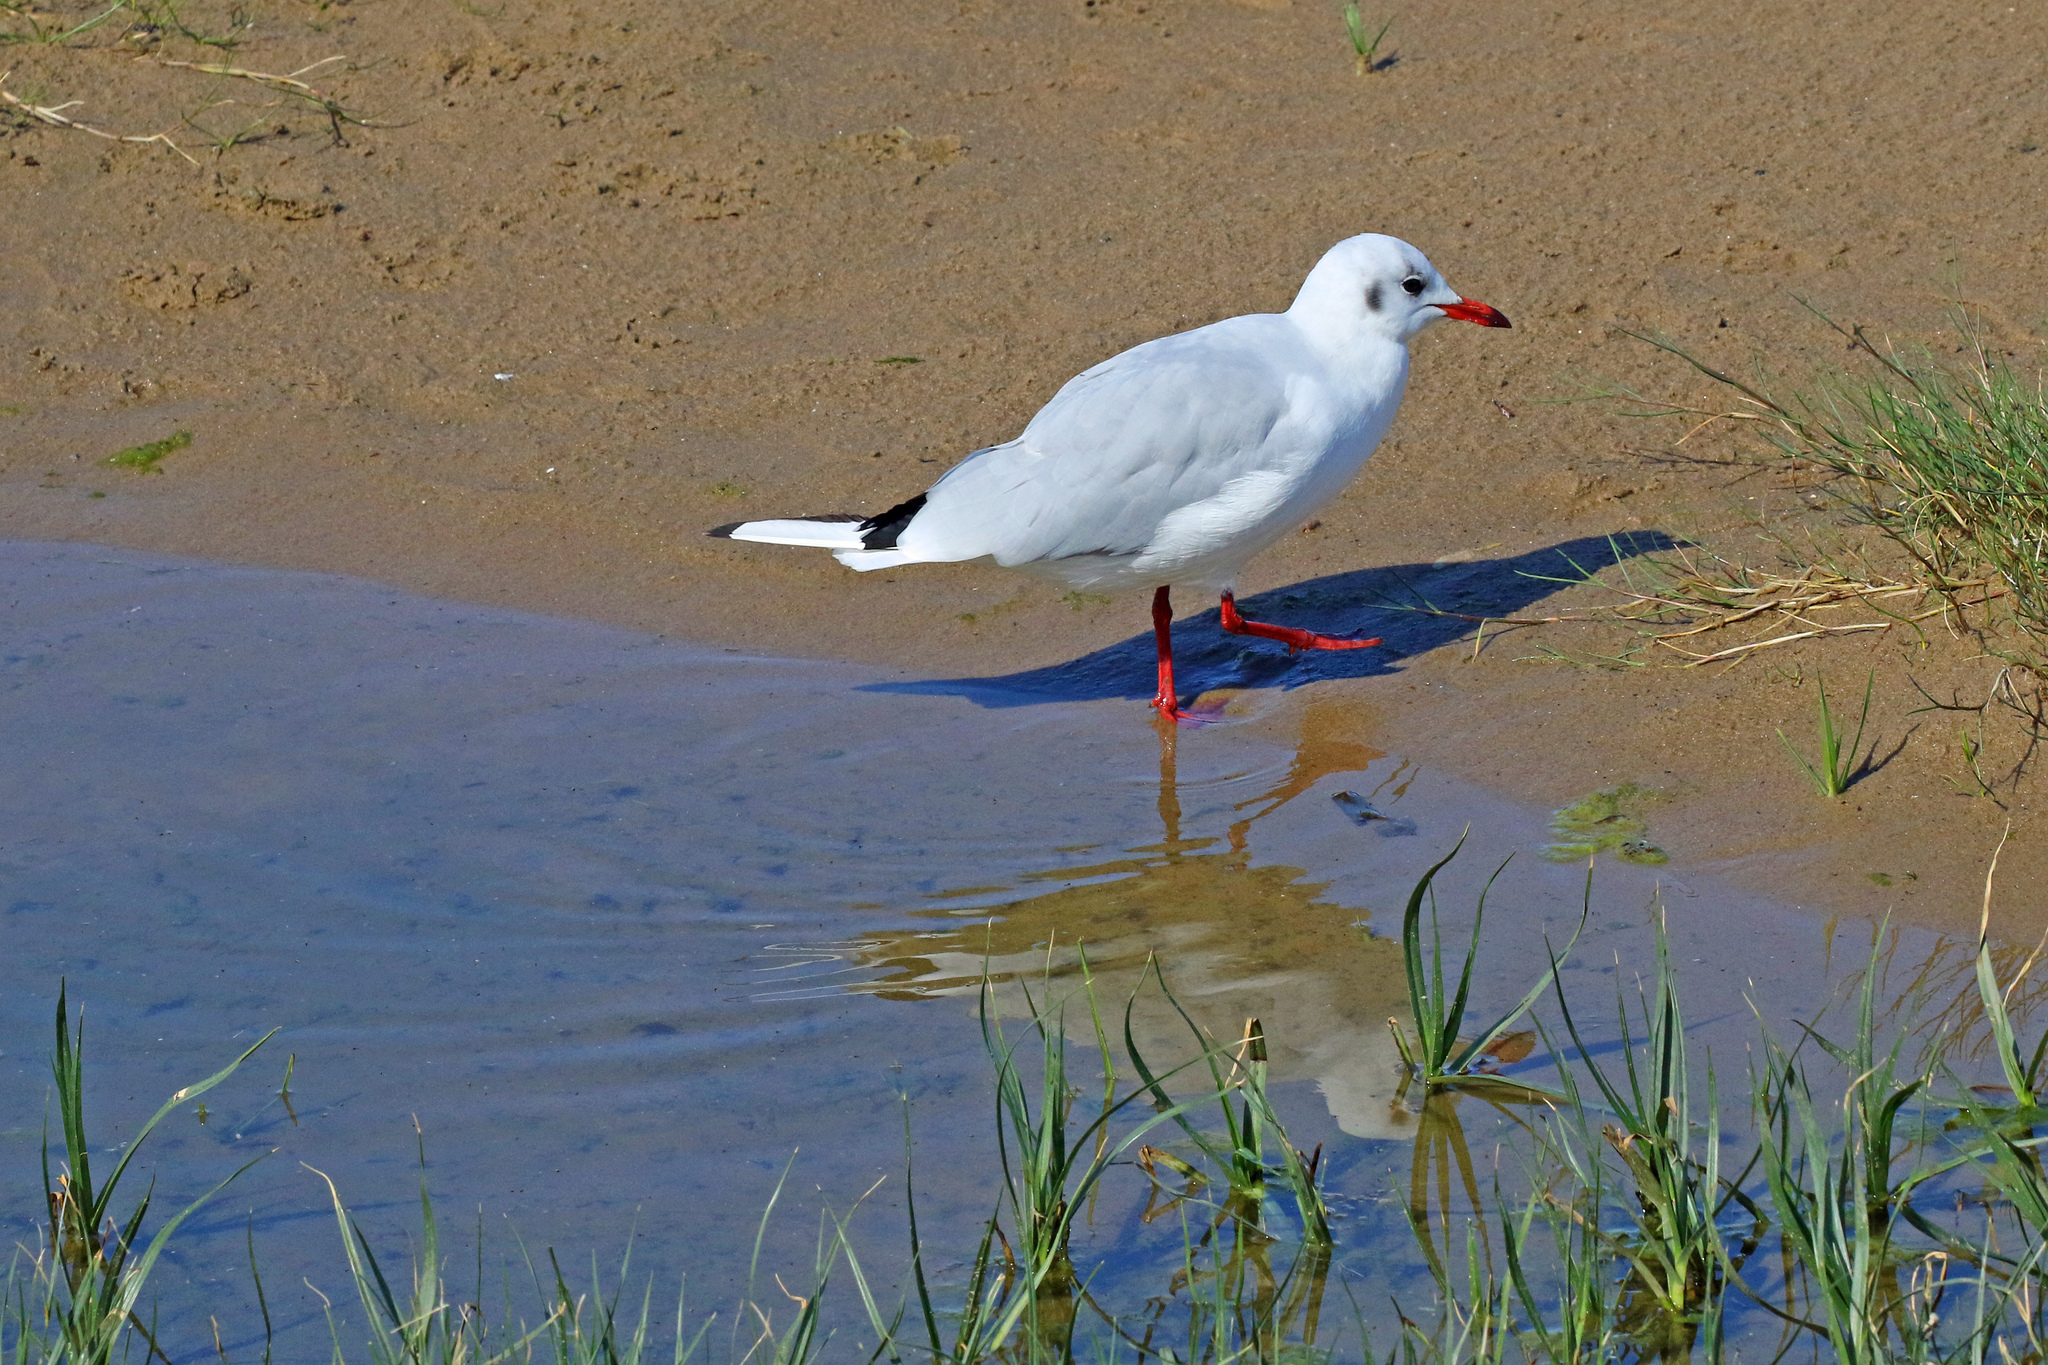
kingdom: Animalia
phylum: Chordata
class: Aves
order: Charadriiformes
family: Laridae
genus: Chroicocephalus
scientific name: Chroicocephalus ridibundus
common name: Black-headed gull
